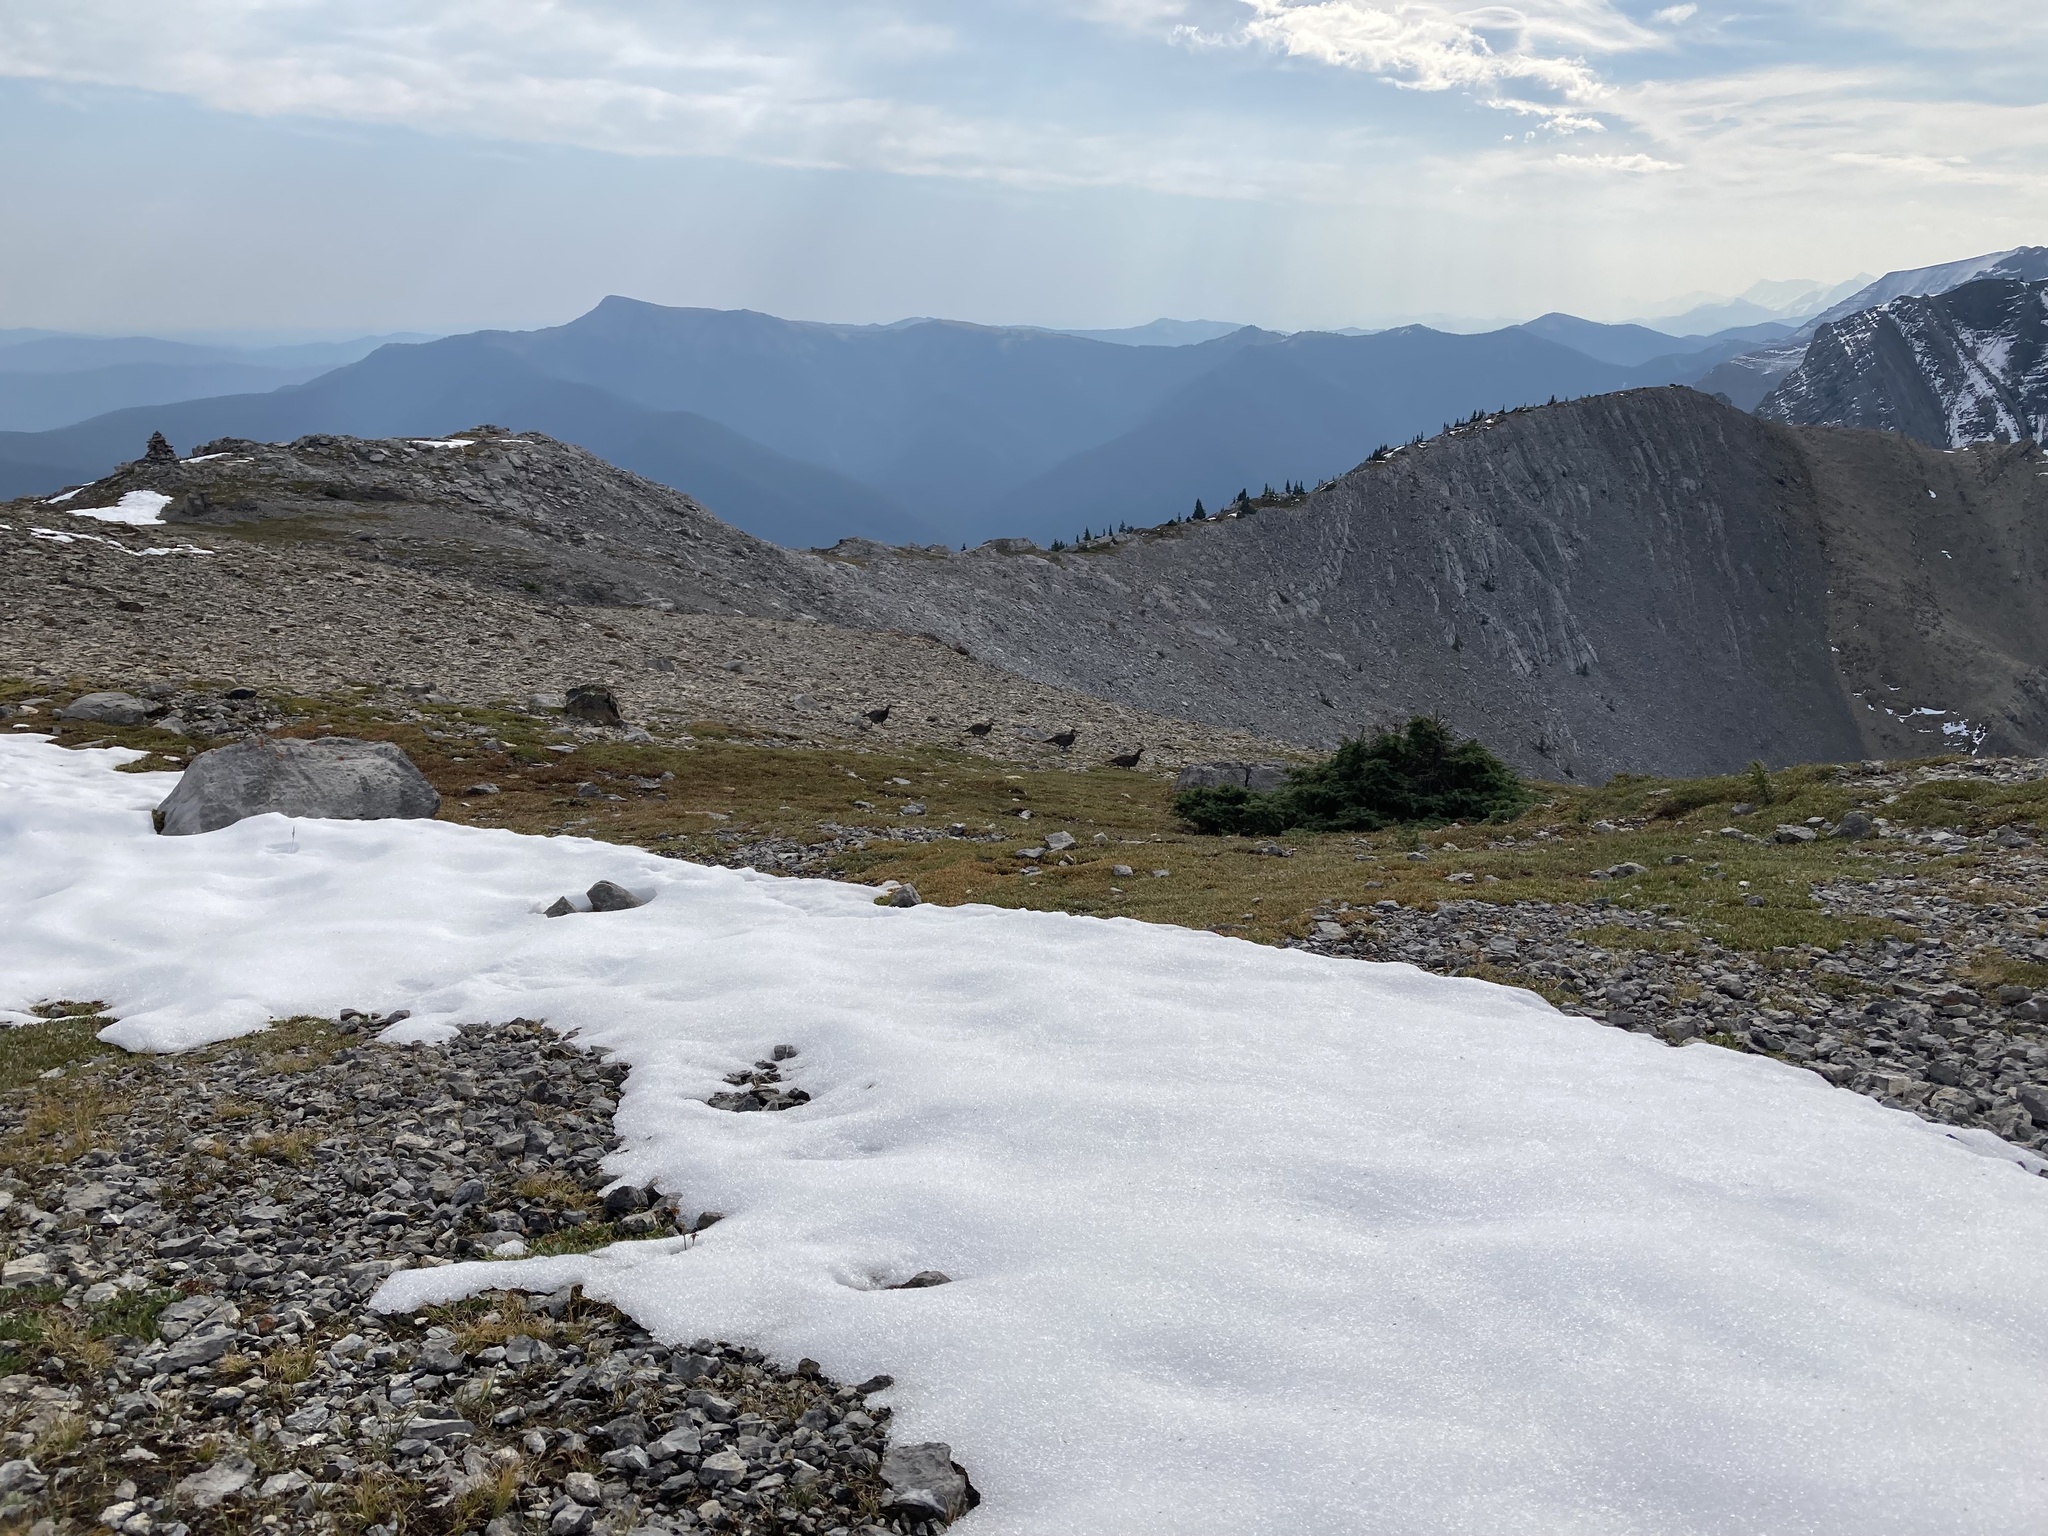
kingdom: Animalia
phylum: Chordata
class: Aves
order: Galliformes
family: Phasianidae
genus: Dendragapus
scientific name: Dendragapus obscurus
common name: Dusky grouse
